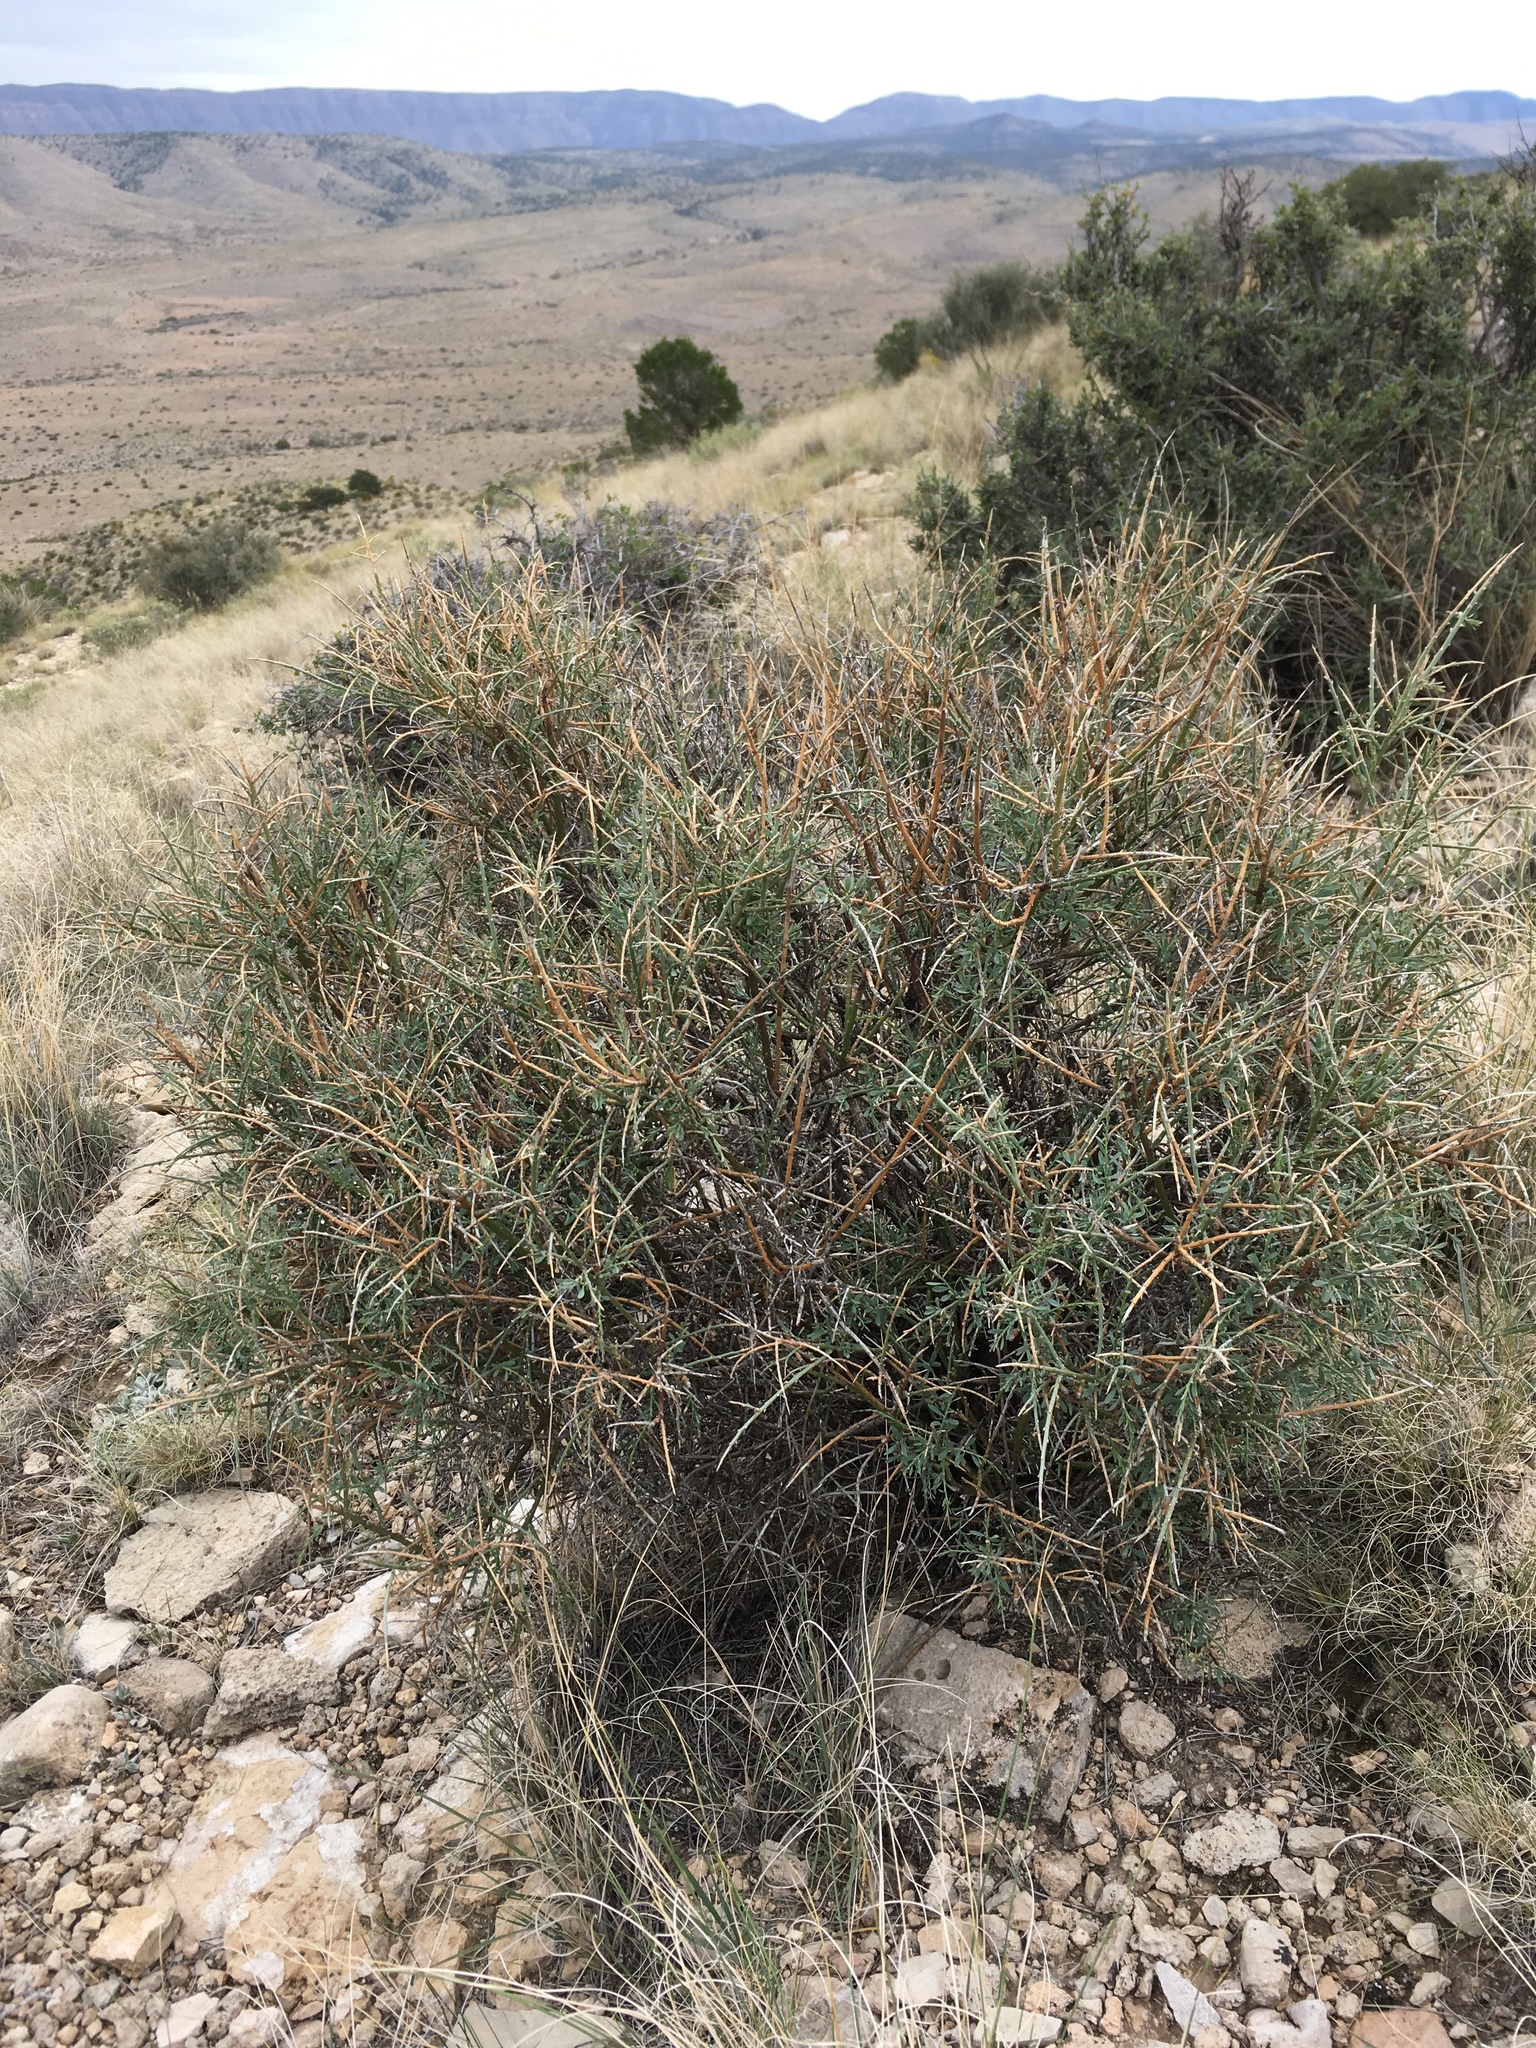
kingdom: Plantae
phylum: Tracheophyta
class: Magnoliopsida
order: Crossosomatales
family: Crossosomataceae
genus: Glossopetalon
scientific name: Glossopetalon spinescens
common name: Spring greasebush
